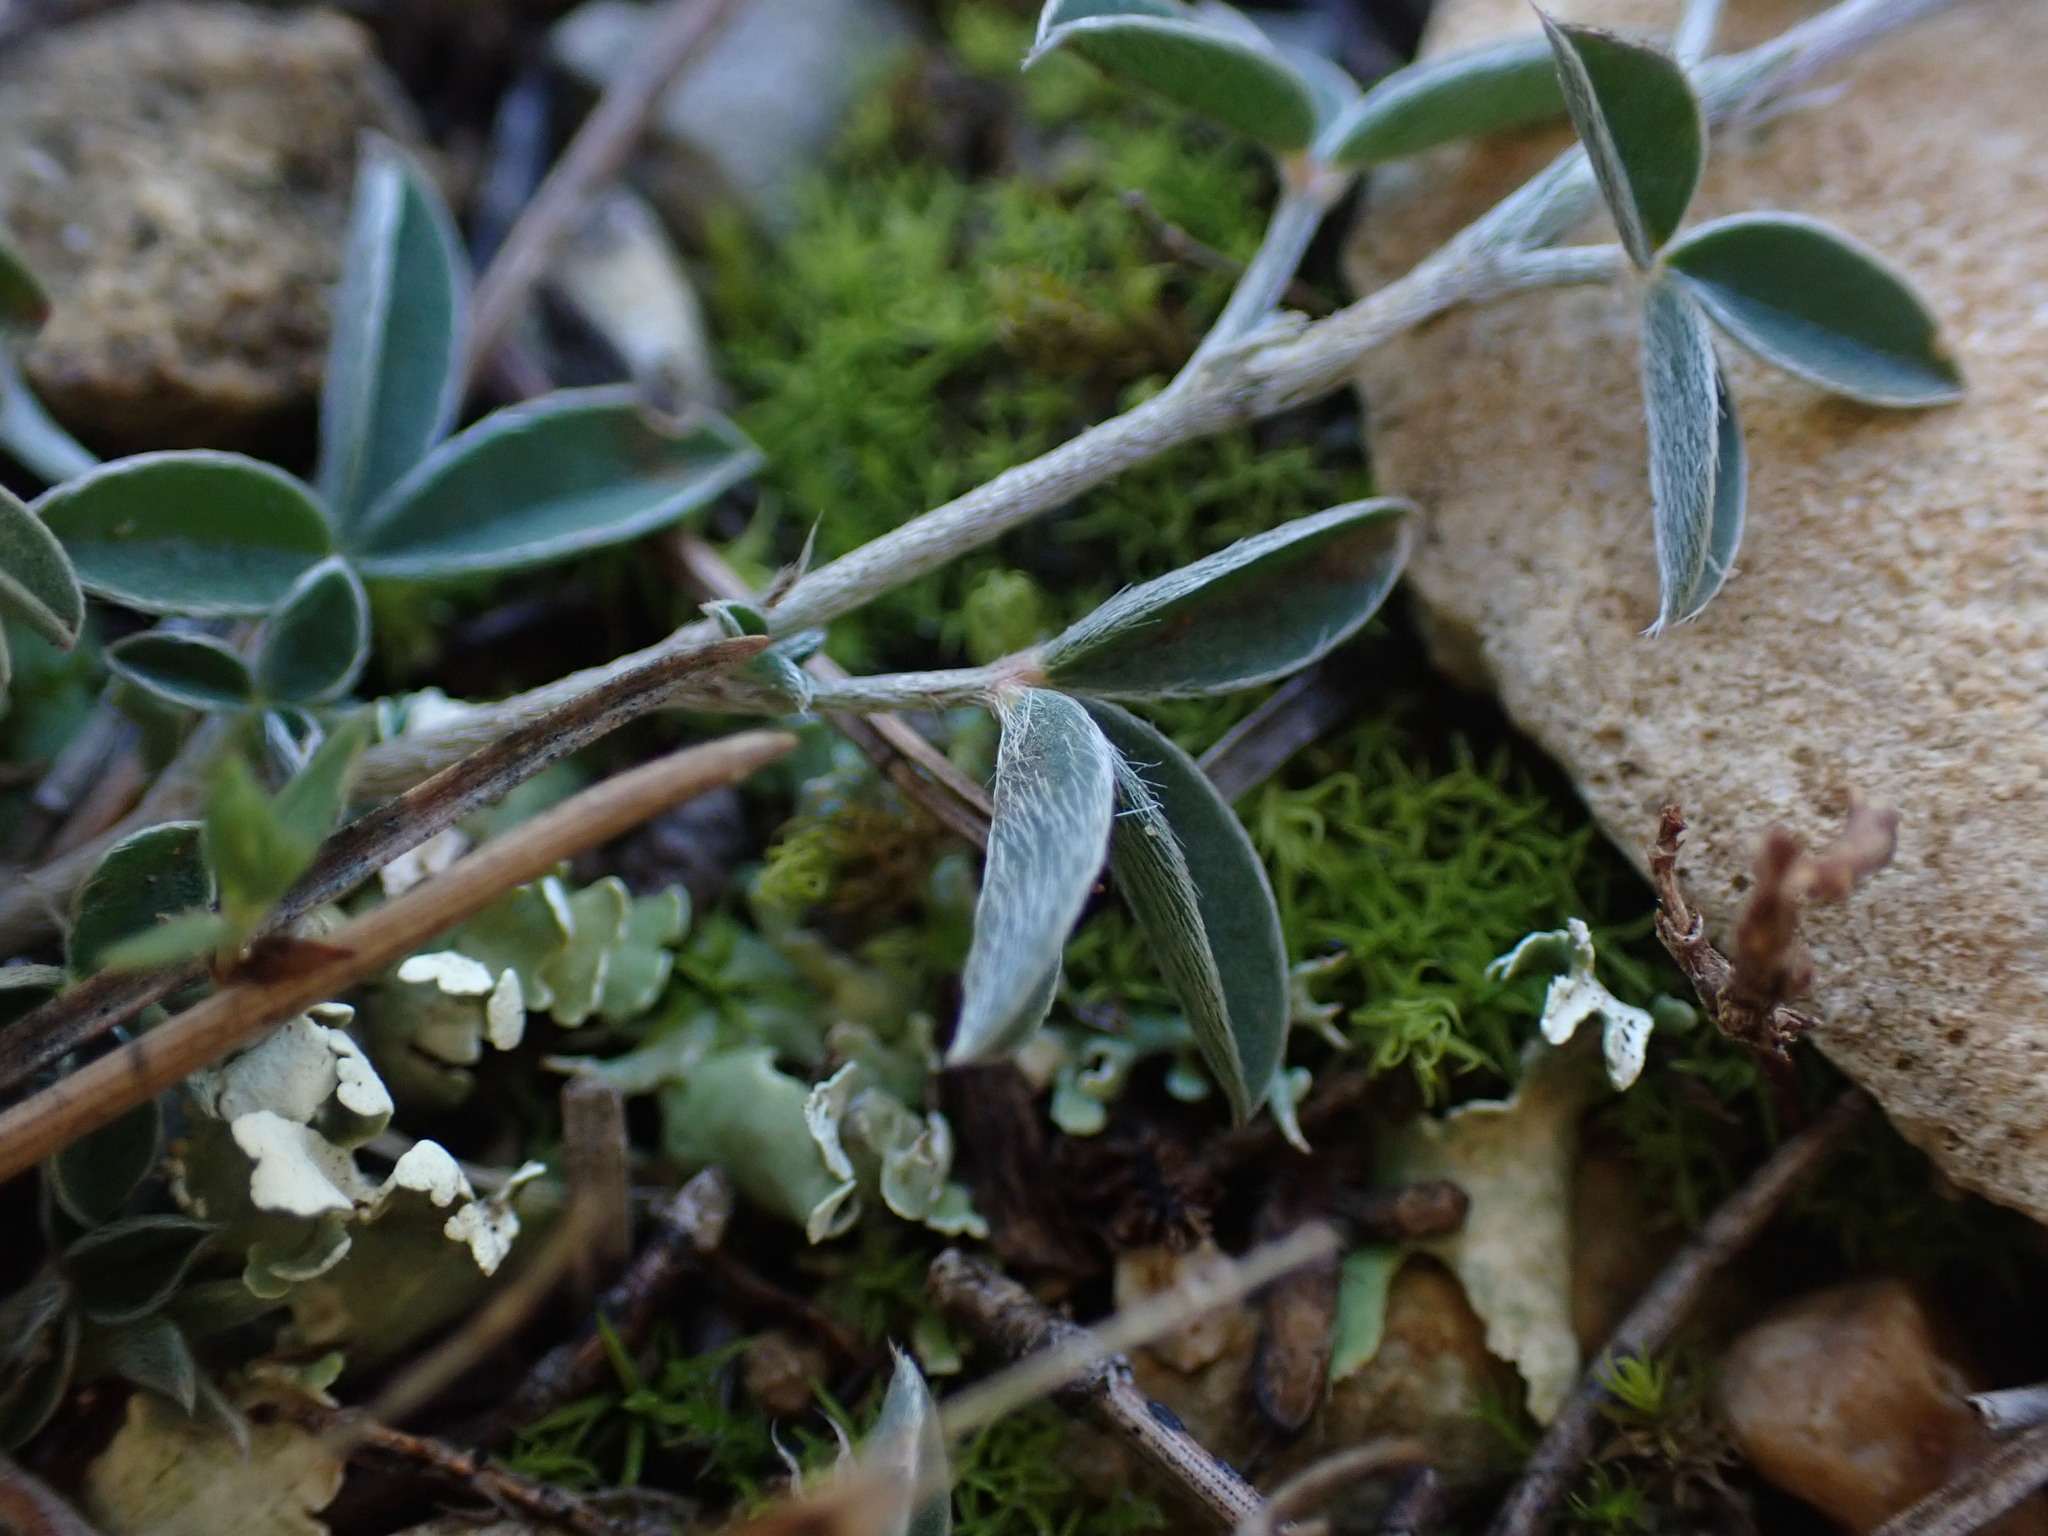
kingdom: Plantae
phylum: Tracheophyta
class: Magnoliopsida
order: Fabales
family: Fabaceae
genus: Argyrolobium
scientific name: Argyrolobium zanonii
